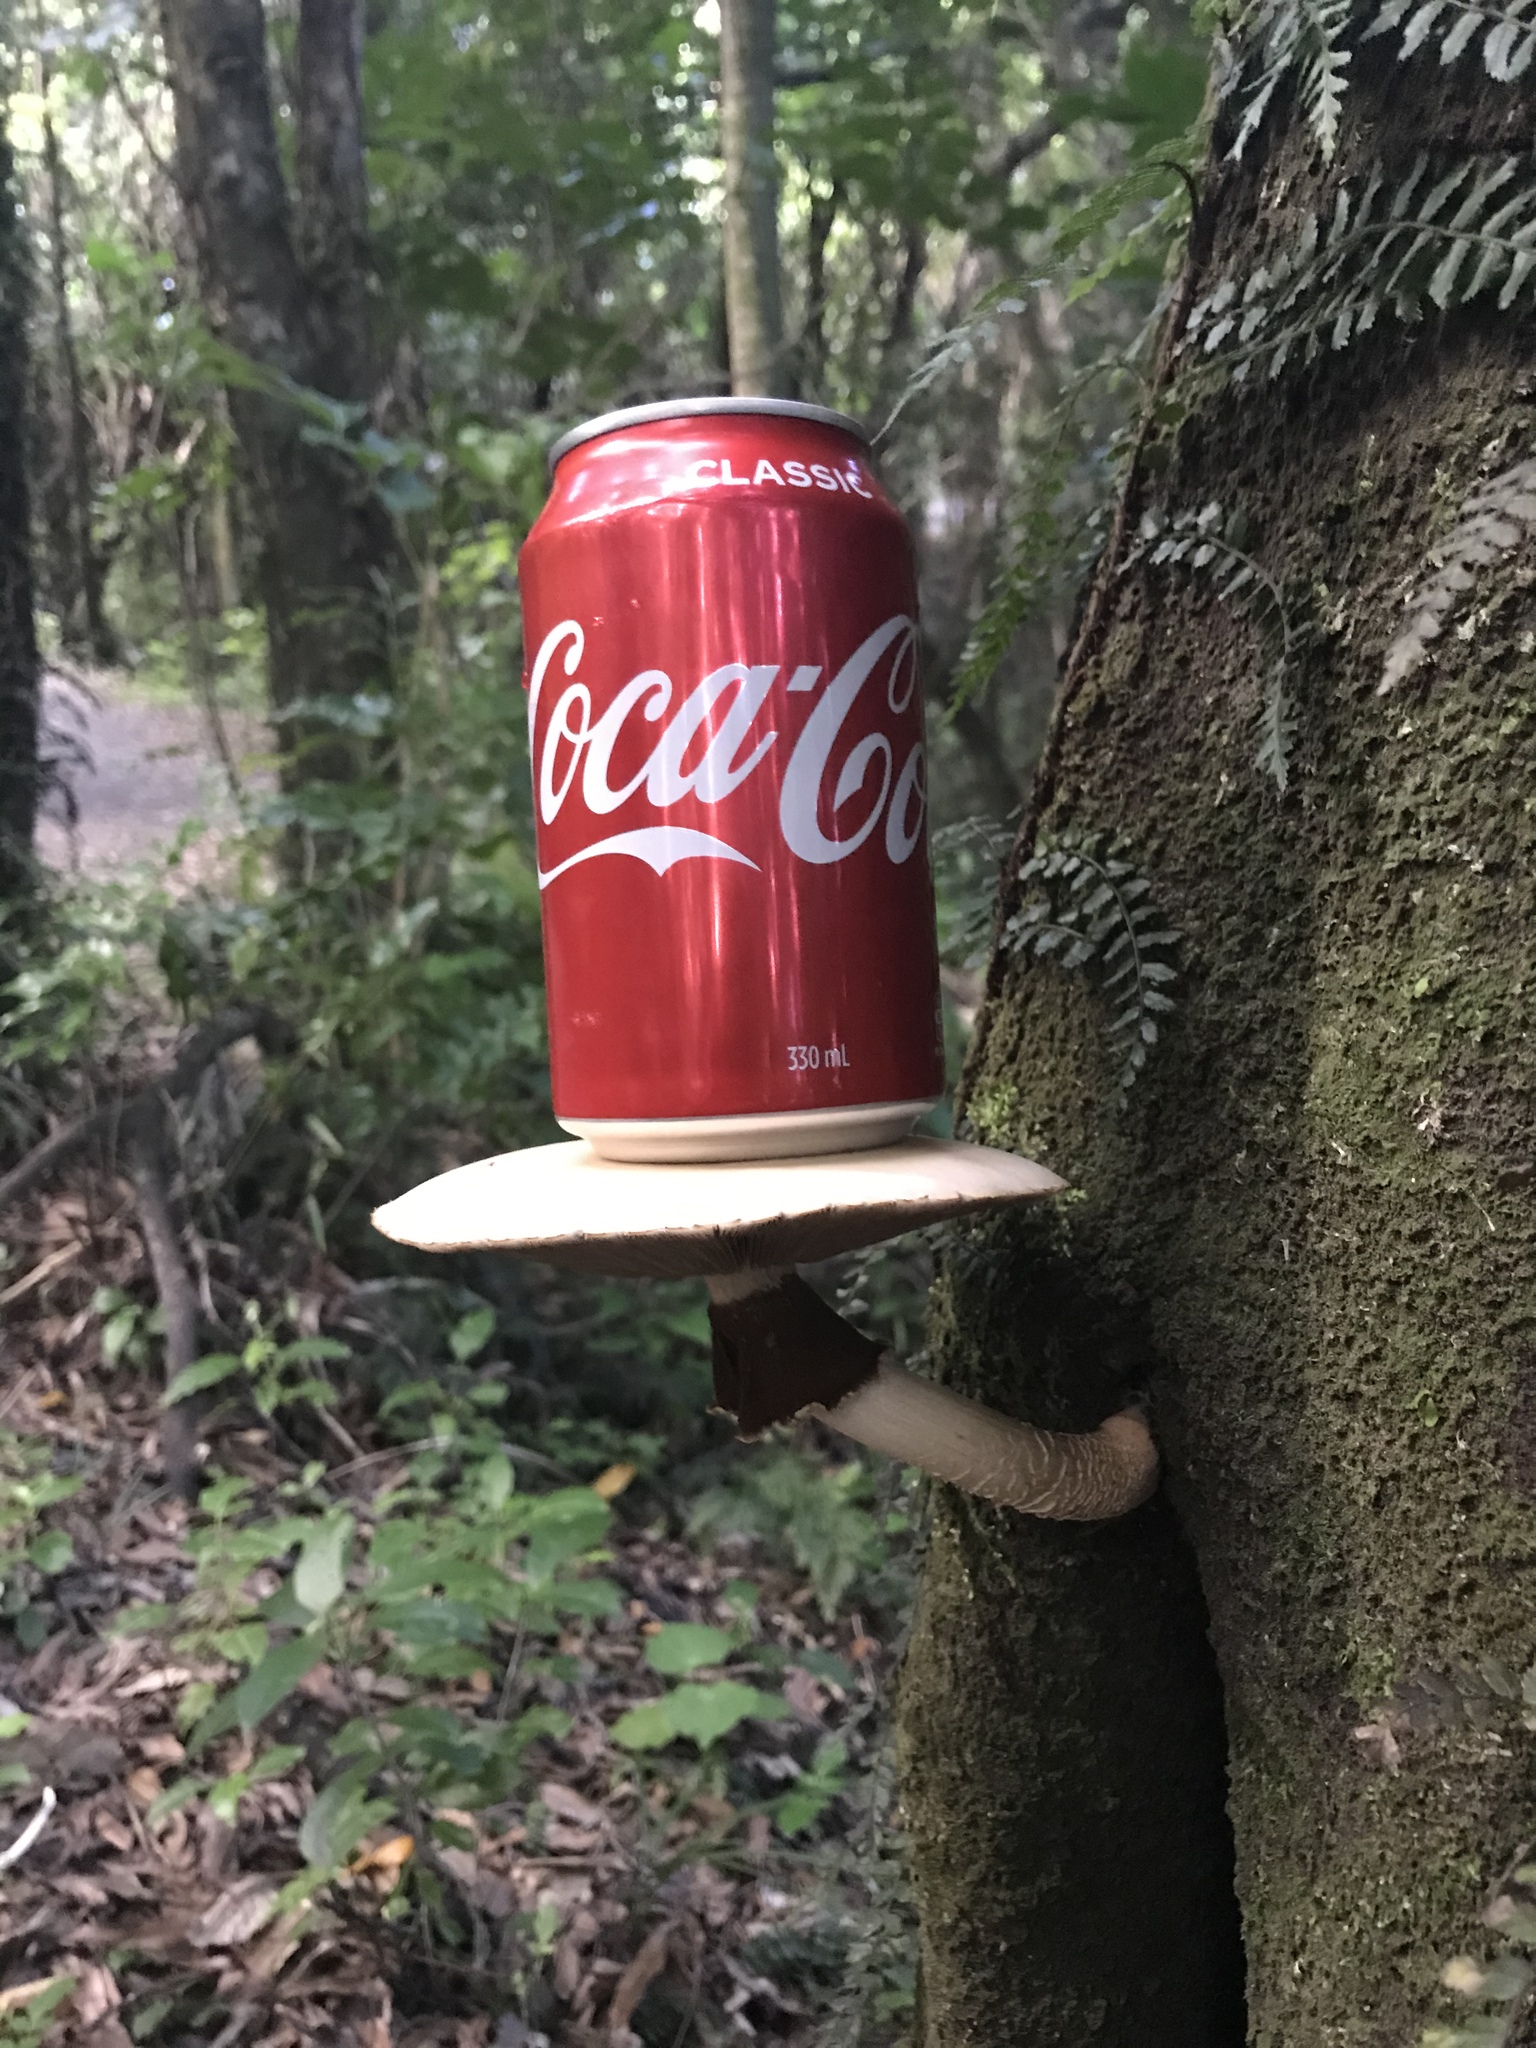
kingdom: Fungi
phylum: Basidiomycota
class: Agaricomycetes
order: Agaricales
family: Tubariaceae
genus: Cyclocybe
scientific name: Cyclocybe parasitica
